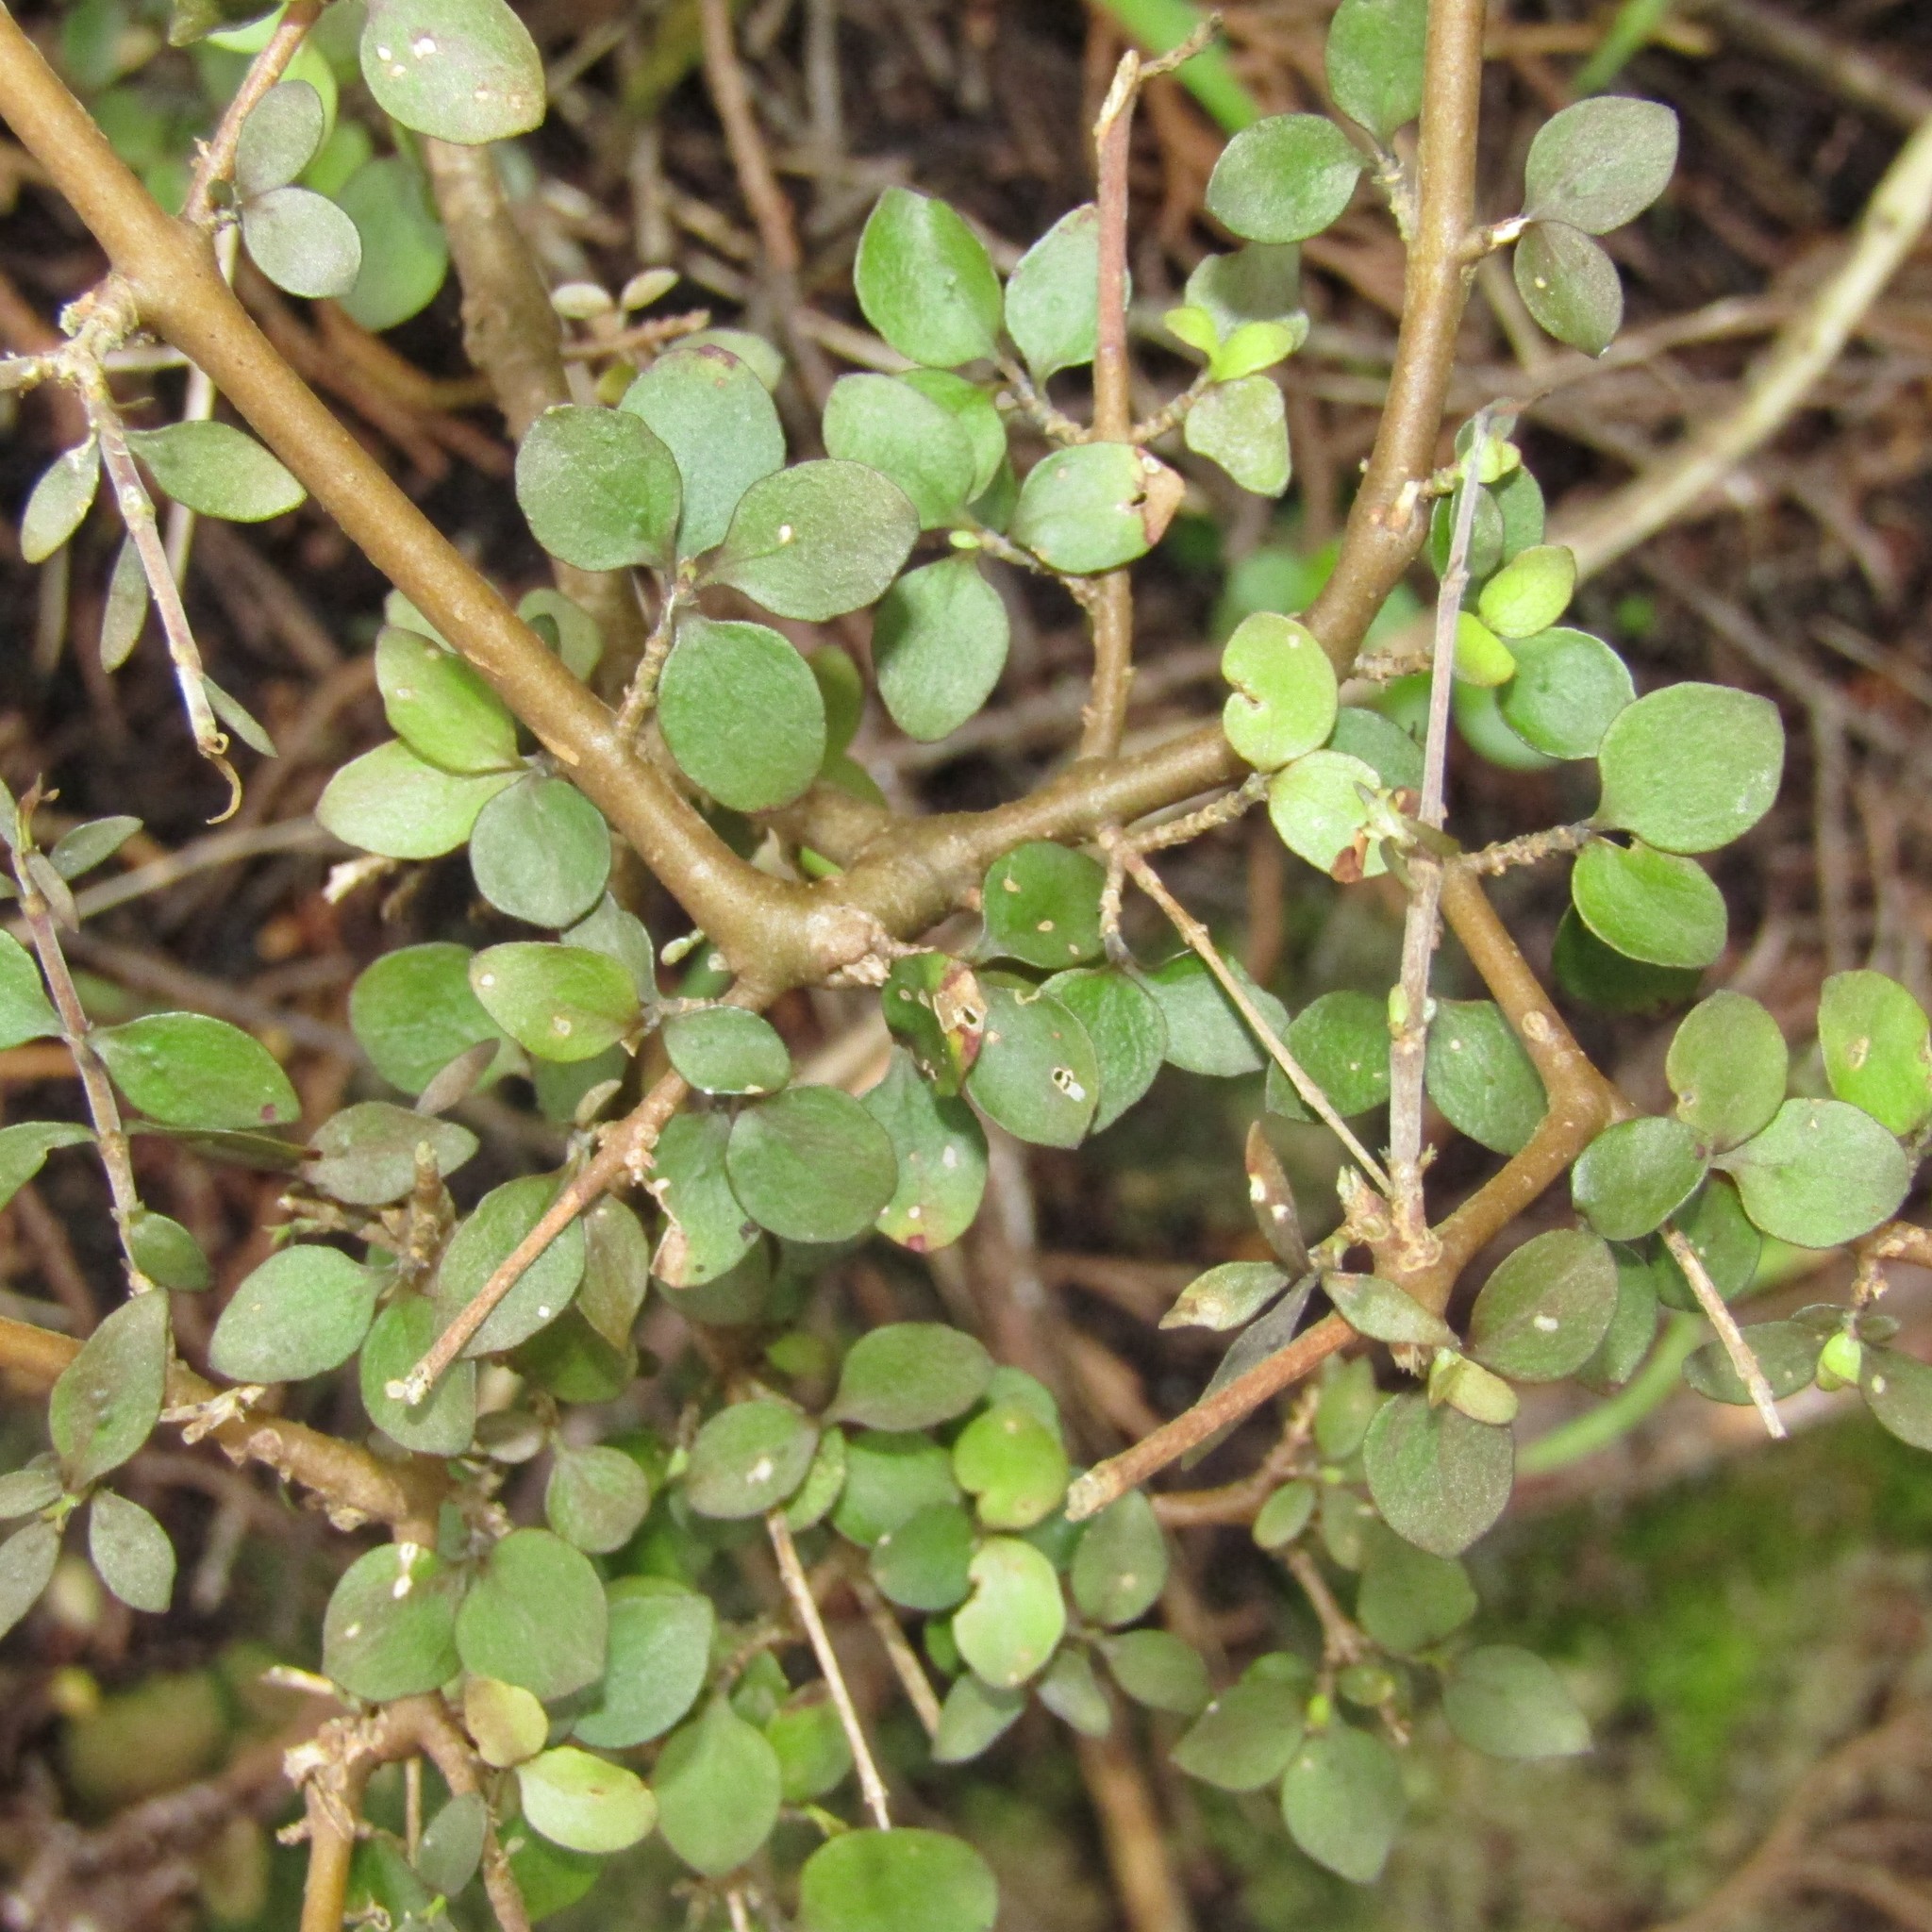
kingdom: Plantae
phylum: Tracheophyta
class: Magnoliopsida
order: Gentianales
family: Rubiaceae
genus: Coprosma
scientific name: Coprosma rhamnoides
